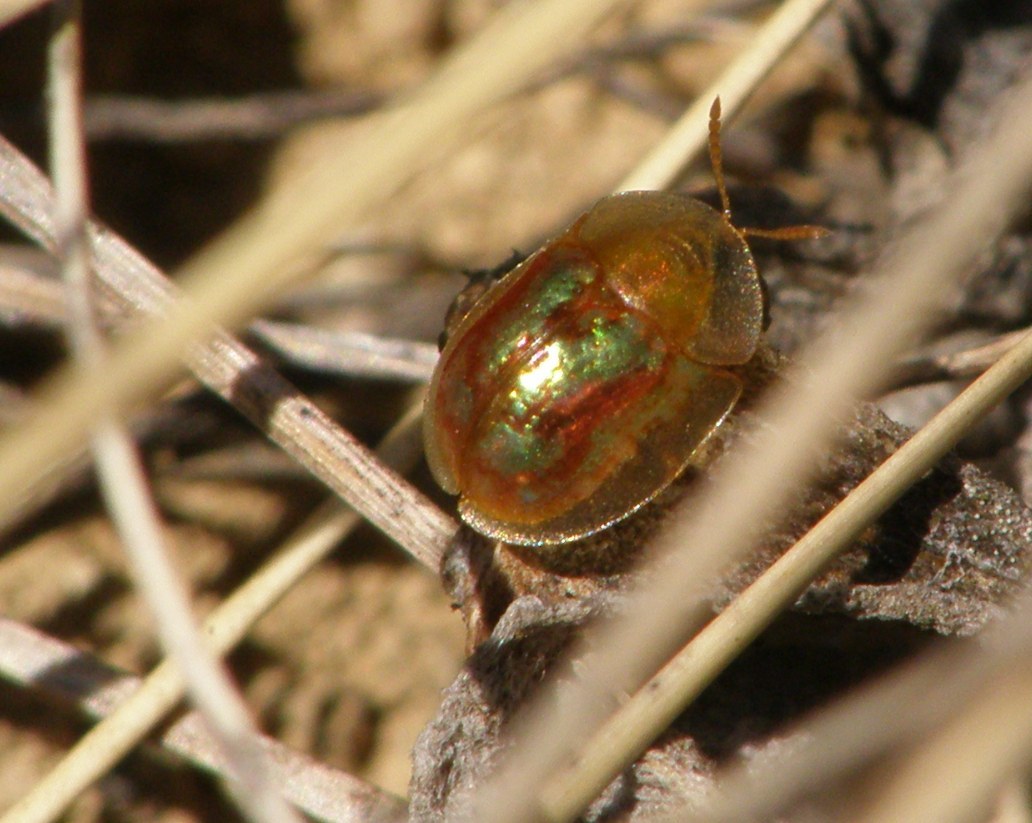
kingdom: Animalia
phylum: Arthropoda
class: Insecta
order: Coleoptera
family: Chrysomelidae
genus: Cassida
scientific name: Cassida subreticulata
